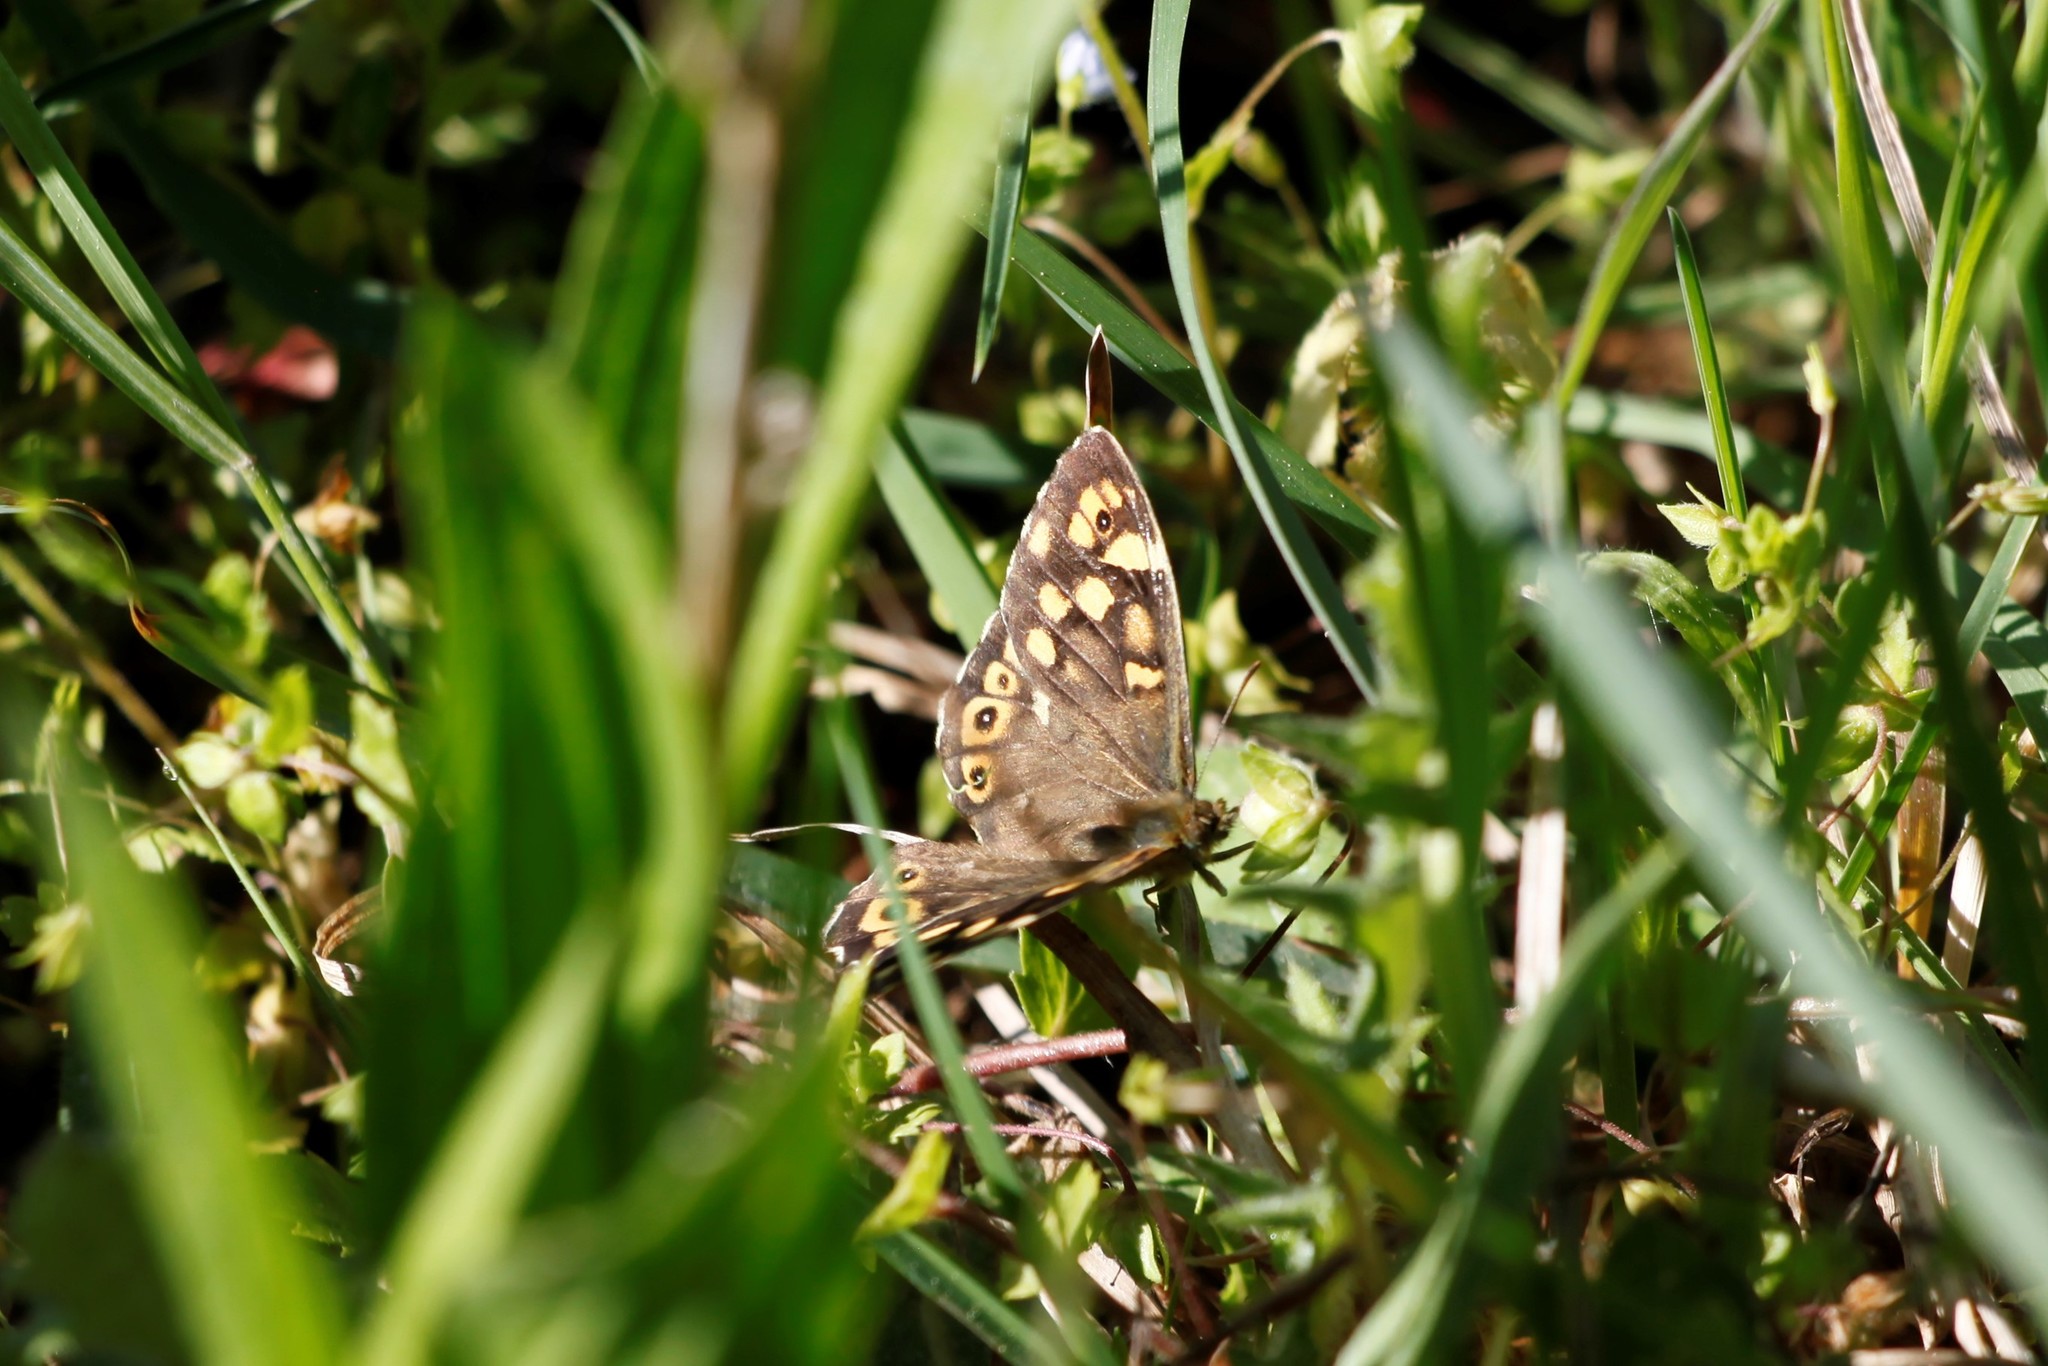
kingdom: Animalia
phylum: Arthropoda
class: Insecta
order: Lepidoptera
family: Nymphalidae
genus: Pararge
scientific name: Pararge aegeria
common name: Speckled wood
